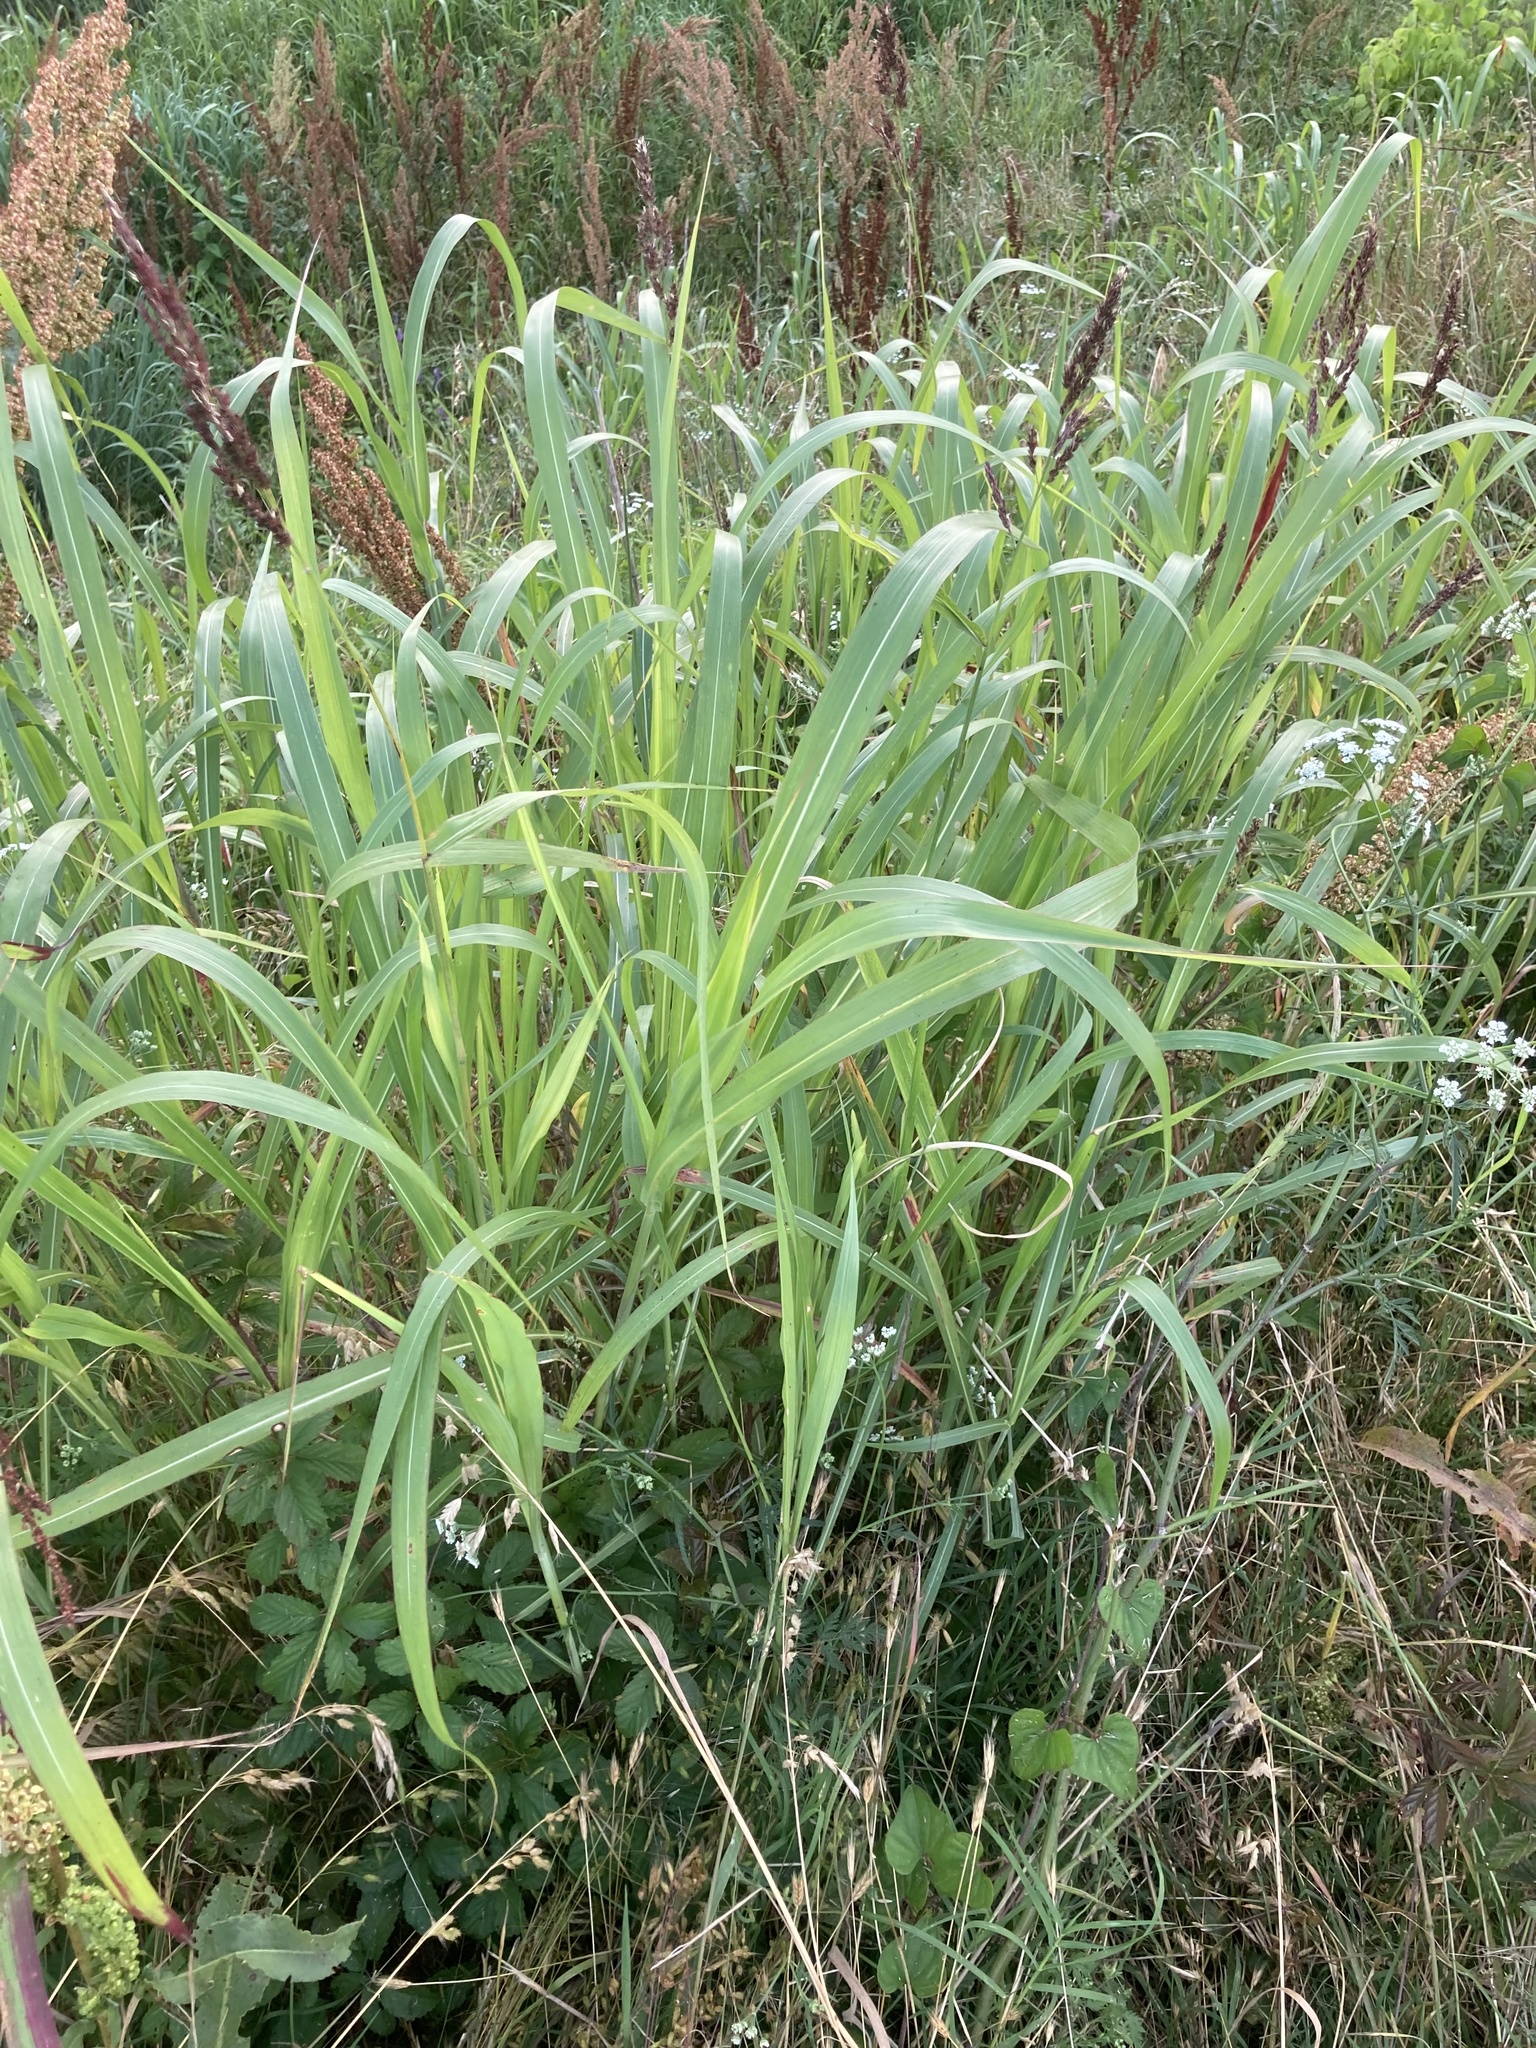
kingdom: Plantae
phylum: Tracheophyta
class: Liliopsida
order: Poales
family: Poaceae
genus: Sorghum
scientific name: Sorghum halepense
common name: Johnson-grass
